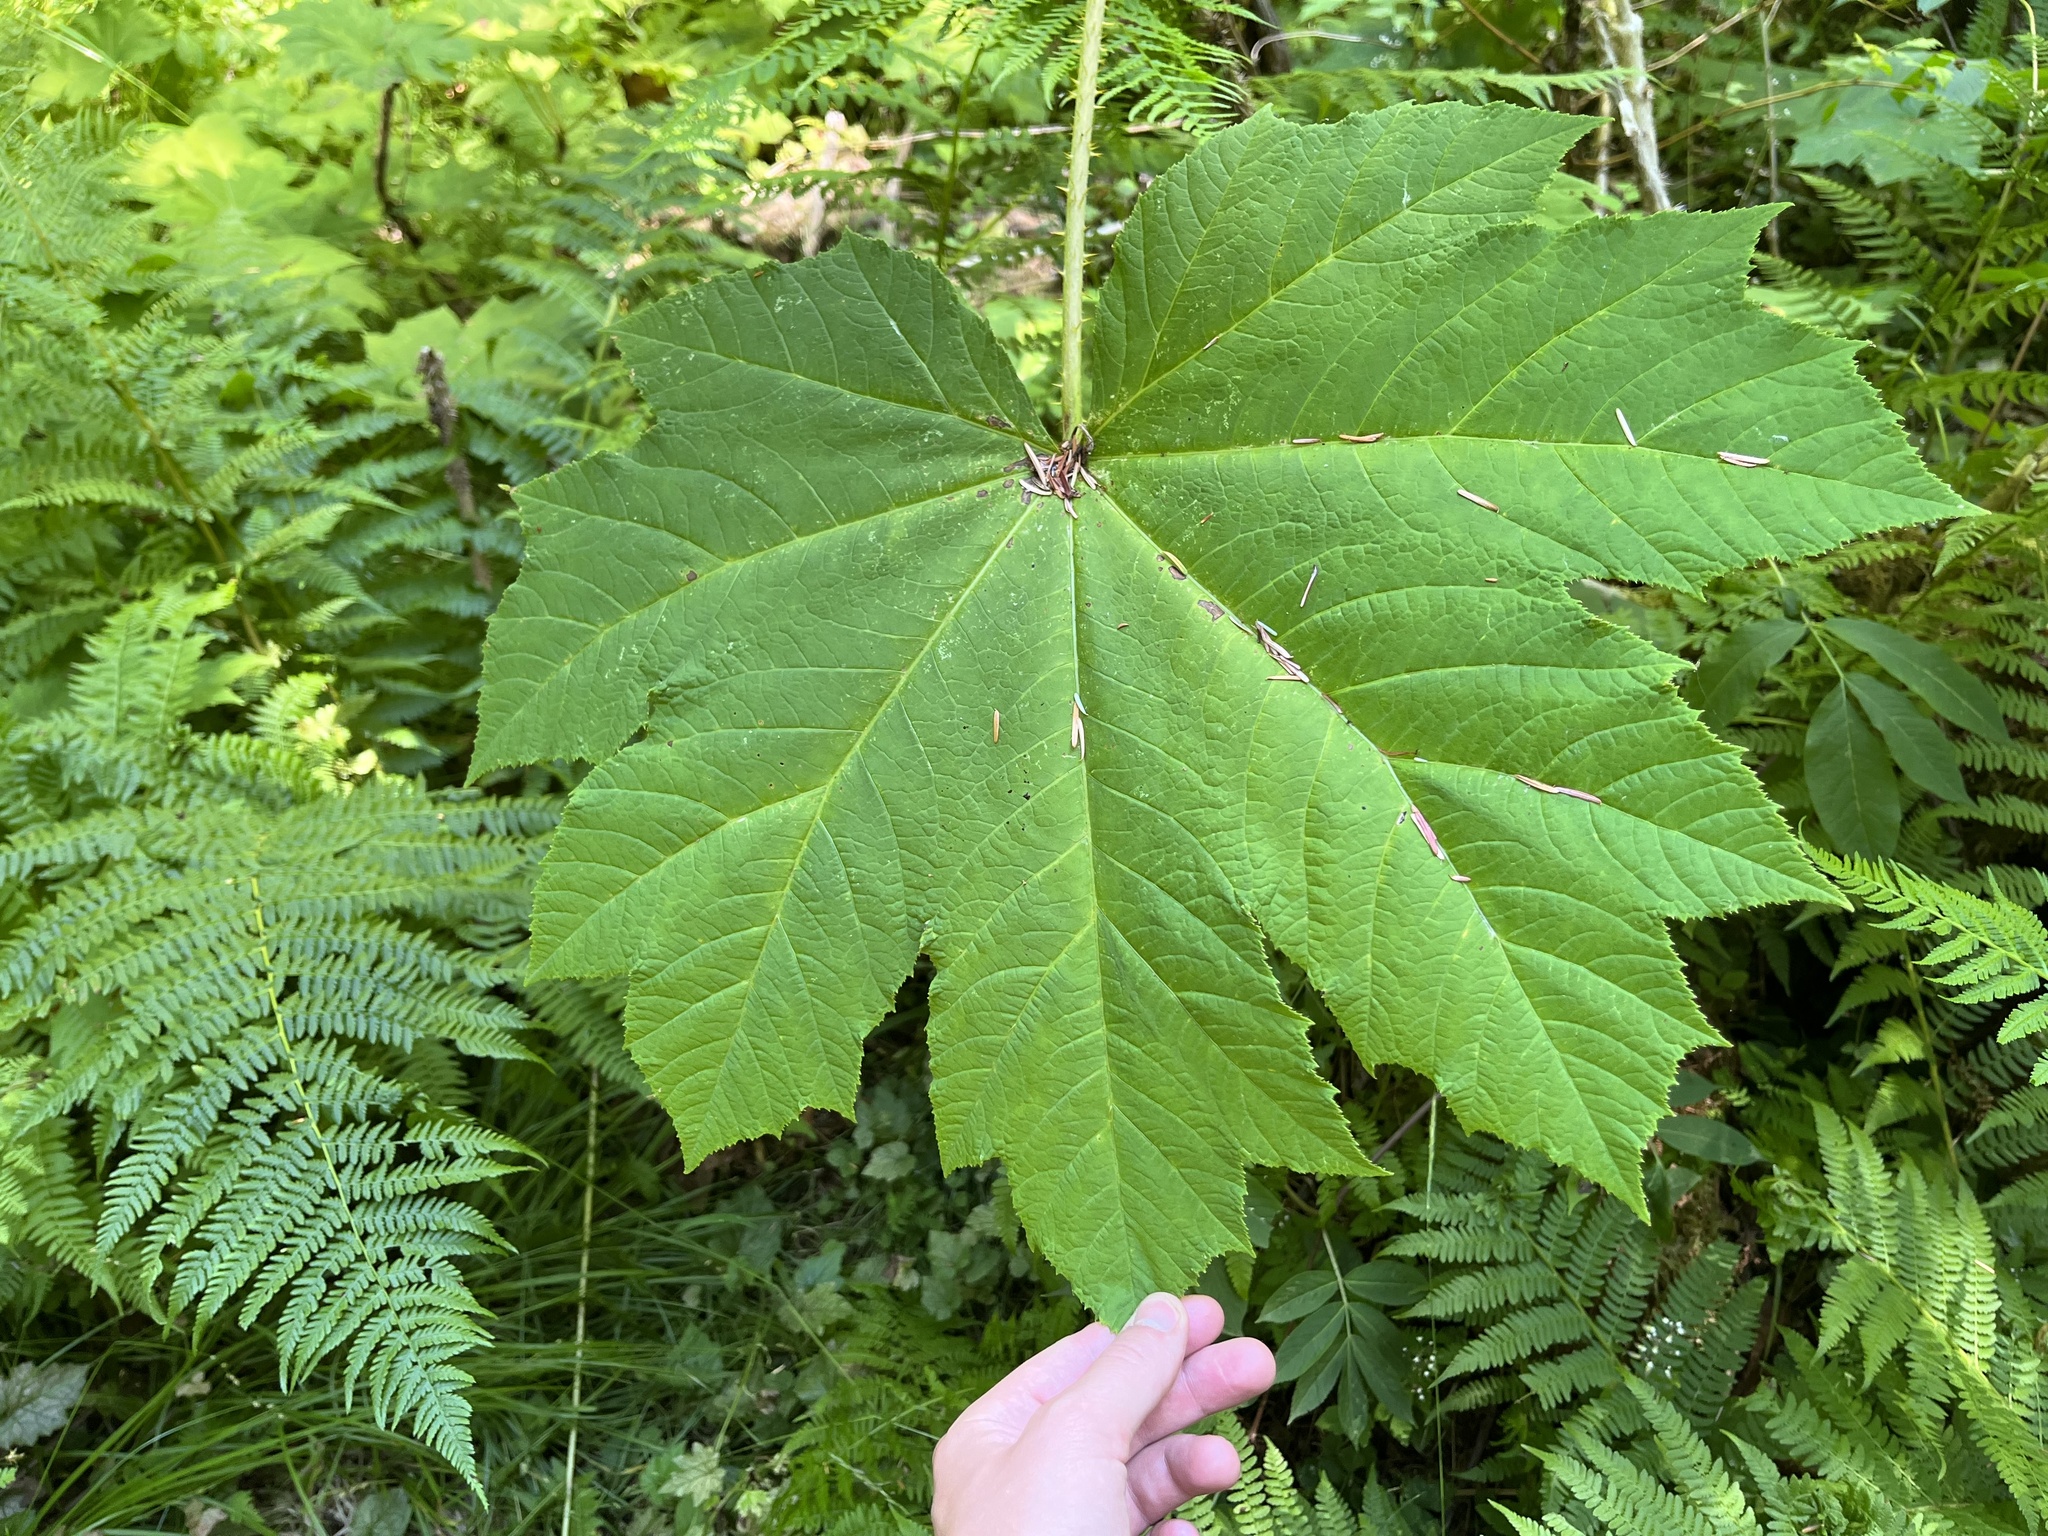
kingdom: Plantae
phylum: Tracheophyta
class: Magnoliopsida
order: Apiales
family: Araliaceae
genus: Oplopanax
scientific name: Oplopanax horridus
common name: Devil's walking-stick
